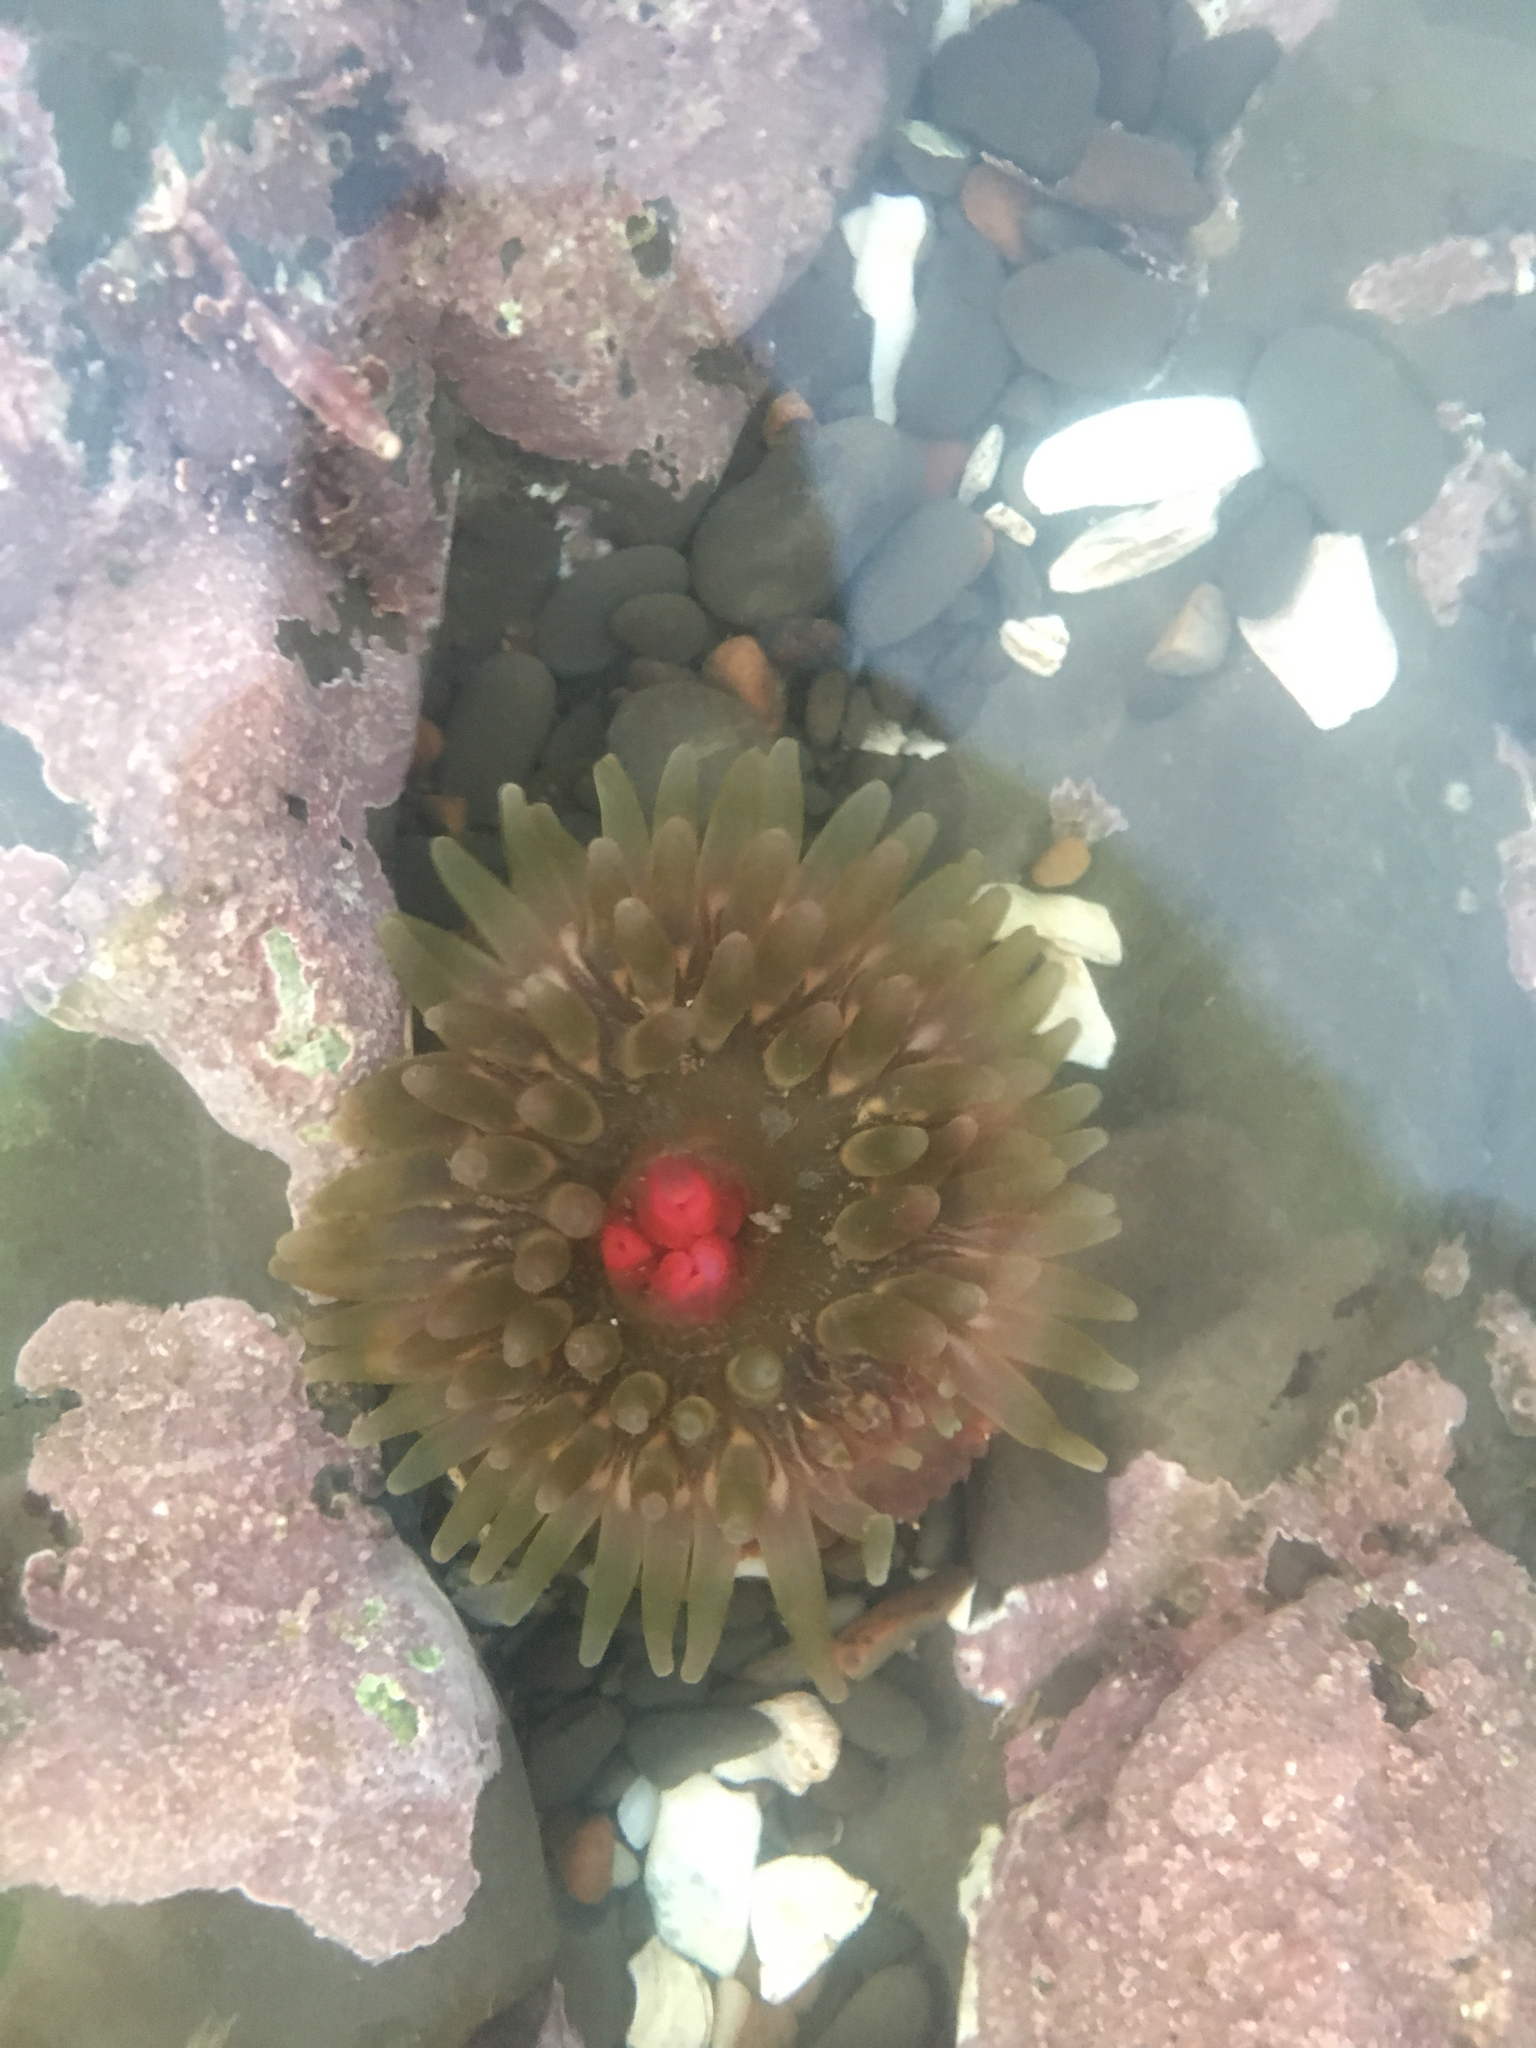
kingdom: Animalia
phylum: Cnidaria
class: Anthozoa
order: Actiniaria
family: Actiniidae
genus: Urticina
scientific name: Urticina clandestina
